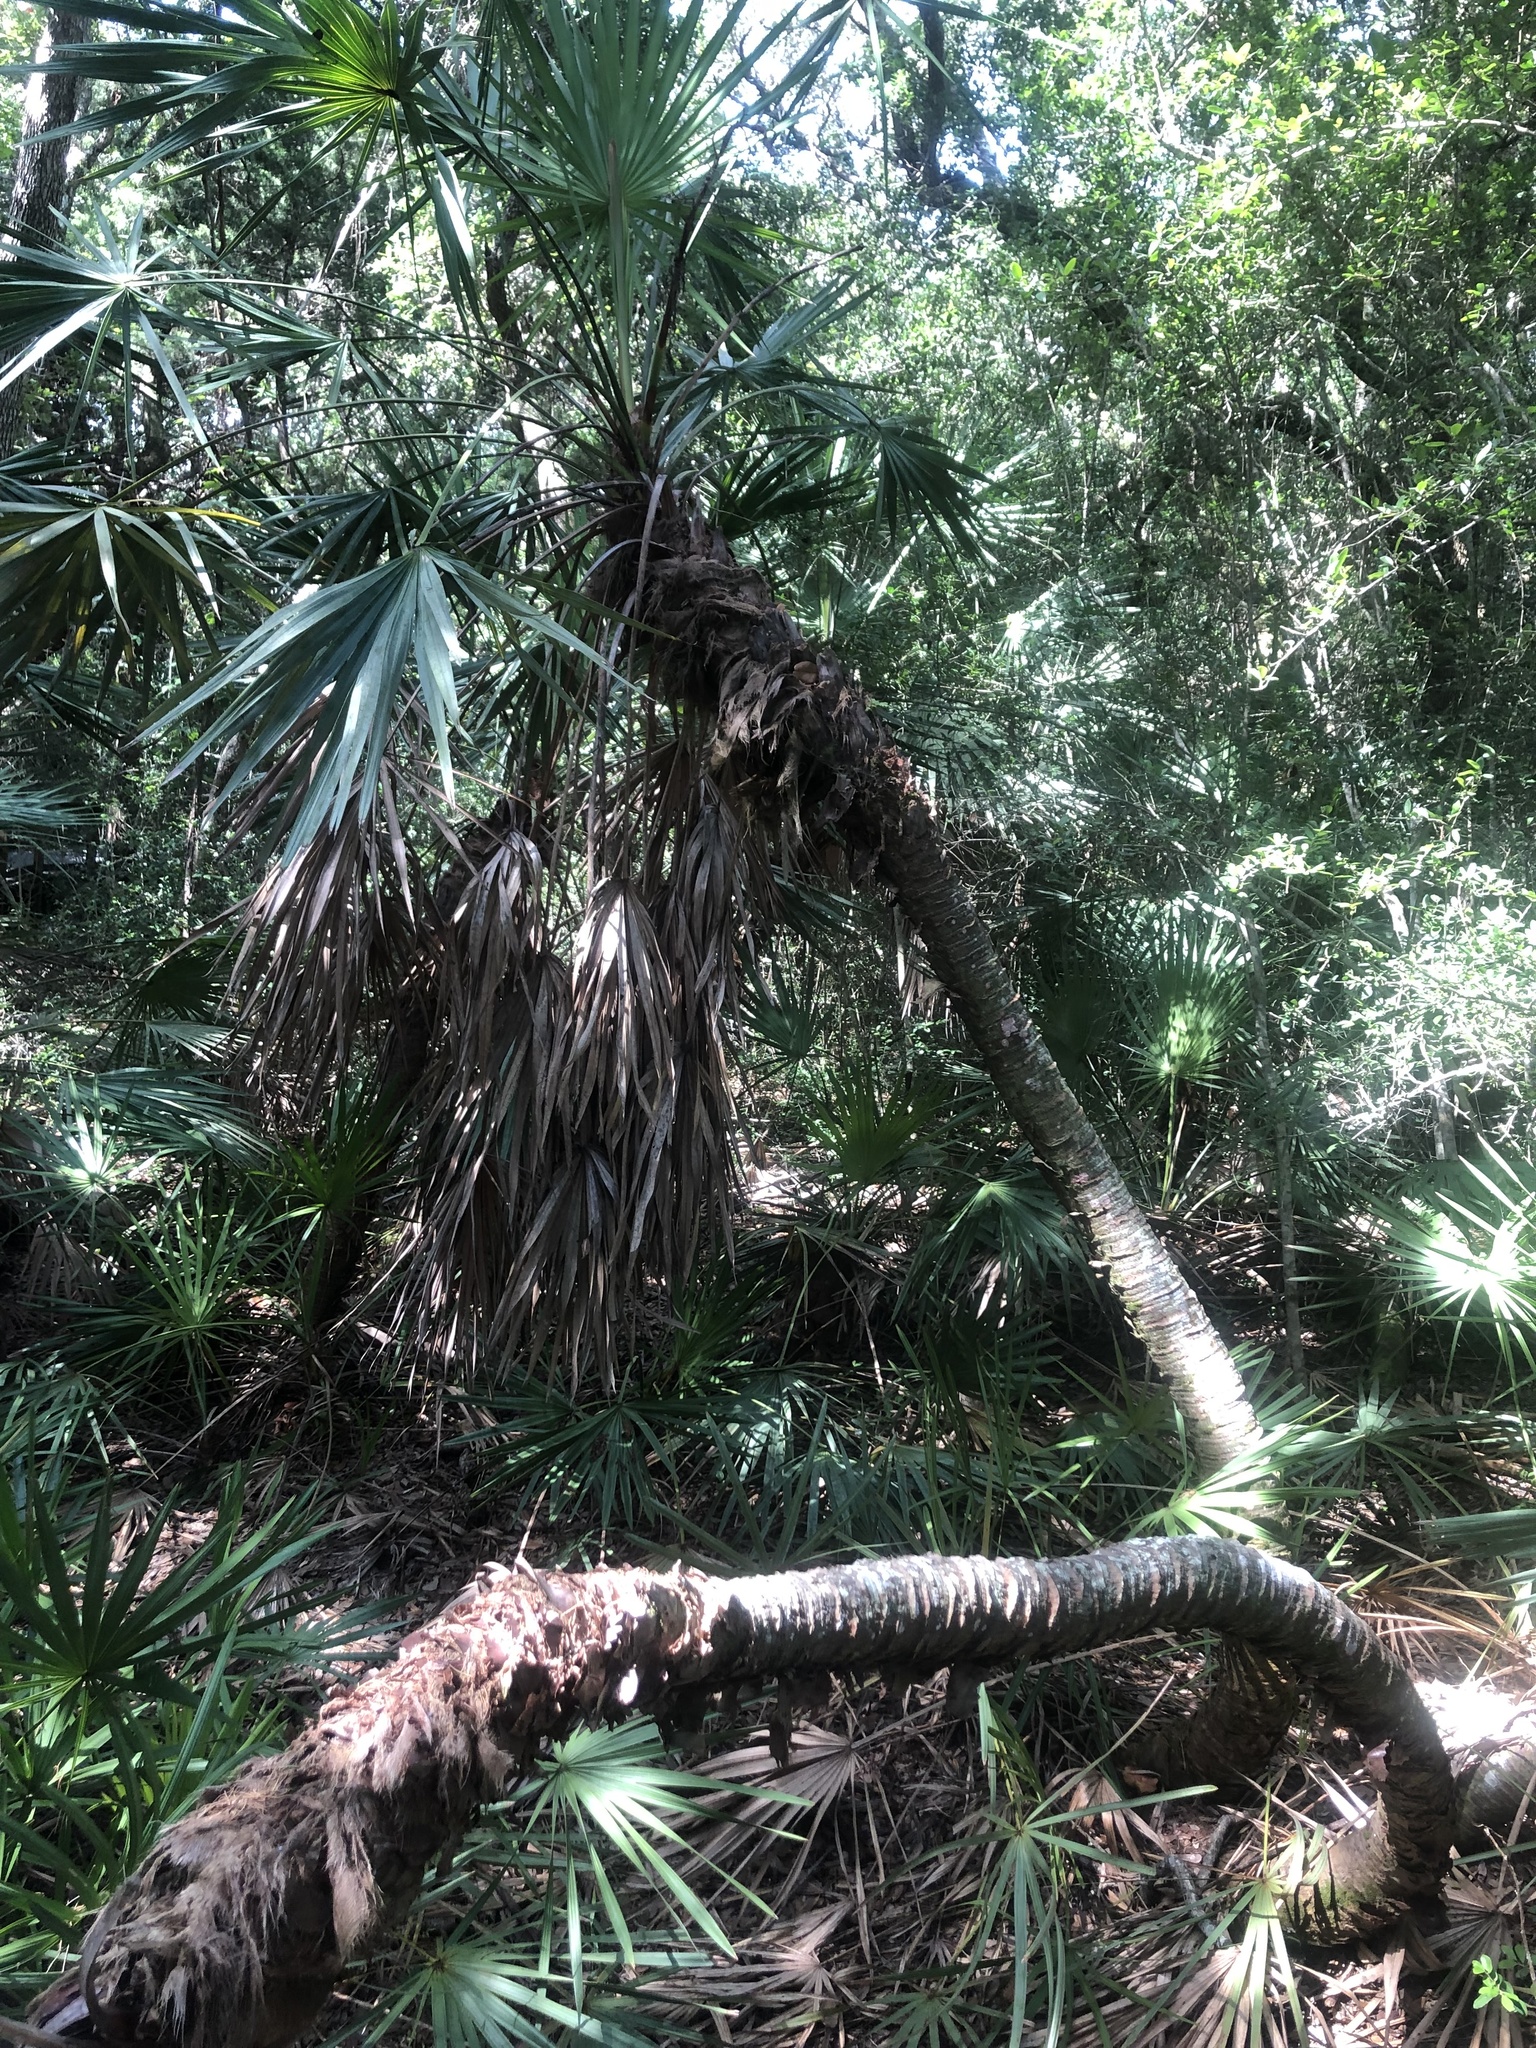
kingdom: Plantae
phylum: Tracheophyta
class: Liliopsida
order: Arecales
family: Arecaceae
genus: Serenoa
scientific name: Serenoa repens
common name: Saw-palmetto
